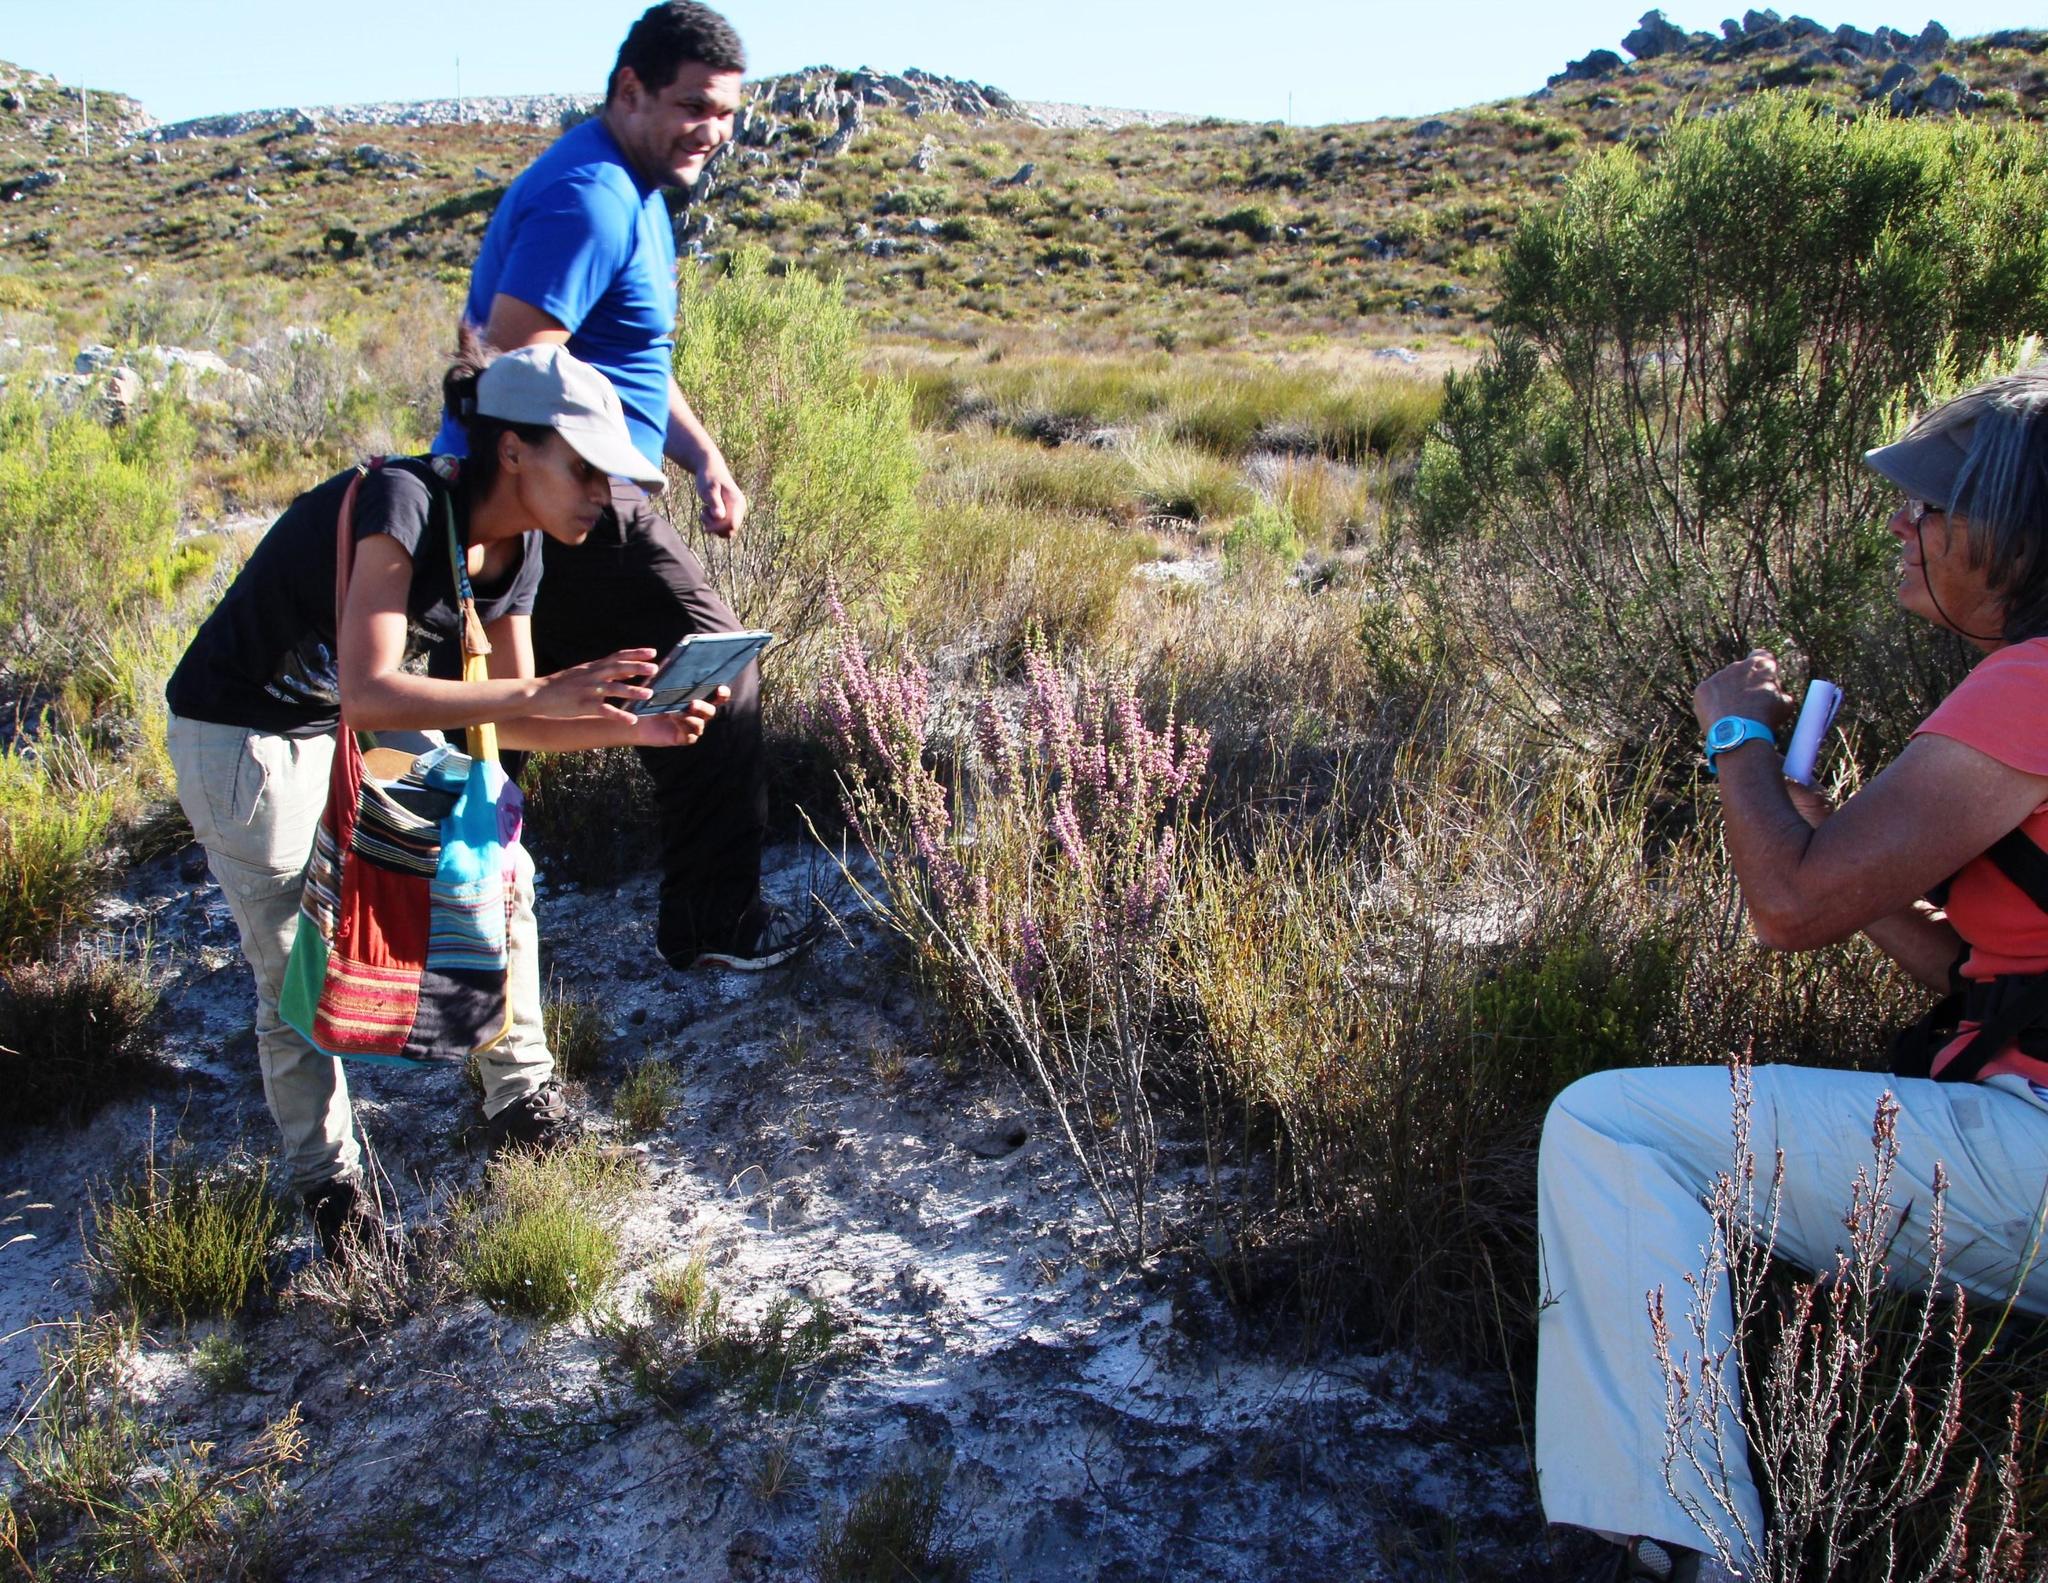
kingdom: Plantae
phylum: Tracheophyta
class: Magnoliopsida
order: Ericales
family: Ericaceae
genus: Erica
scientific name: Erica placentiflora
